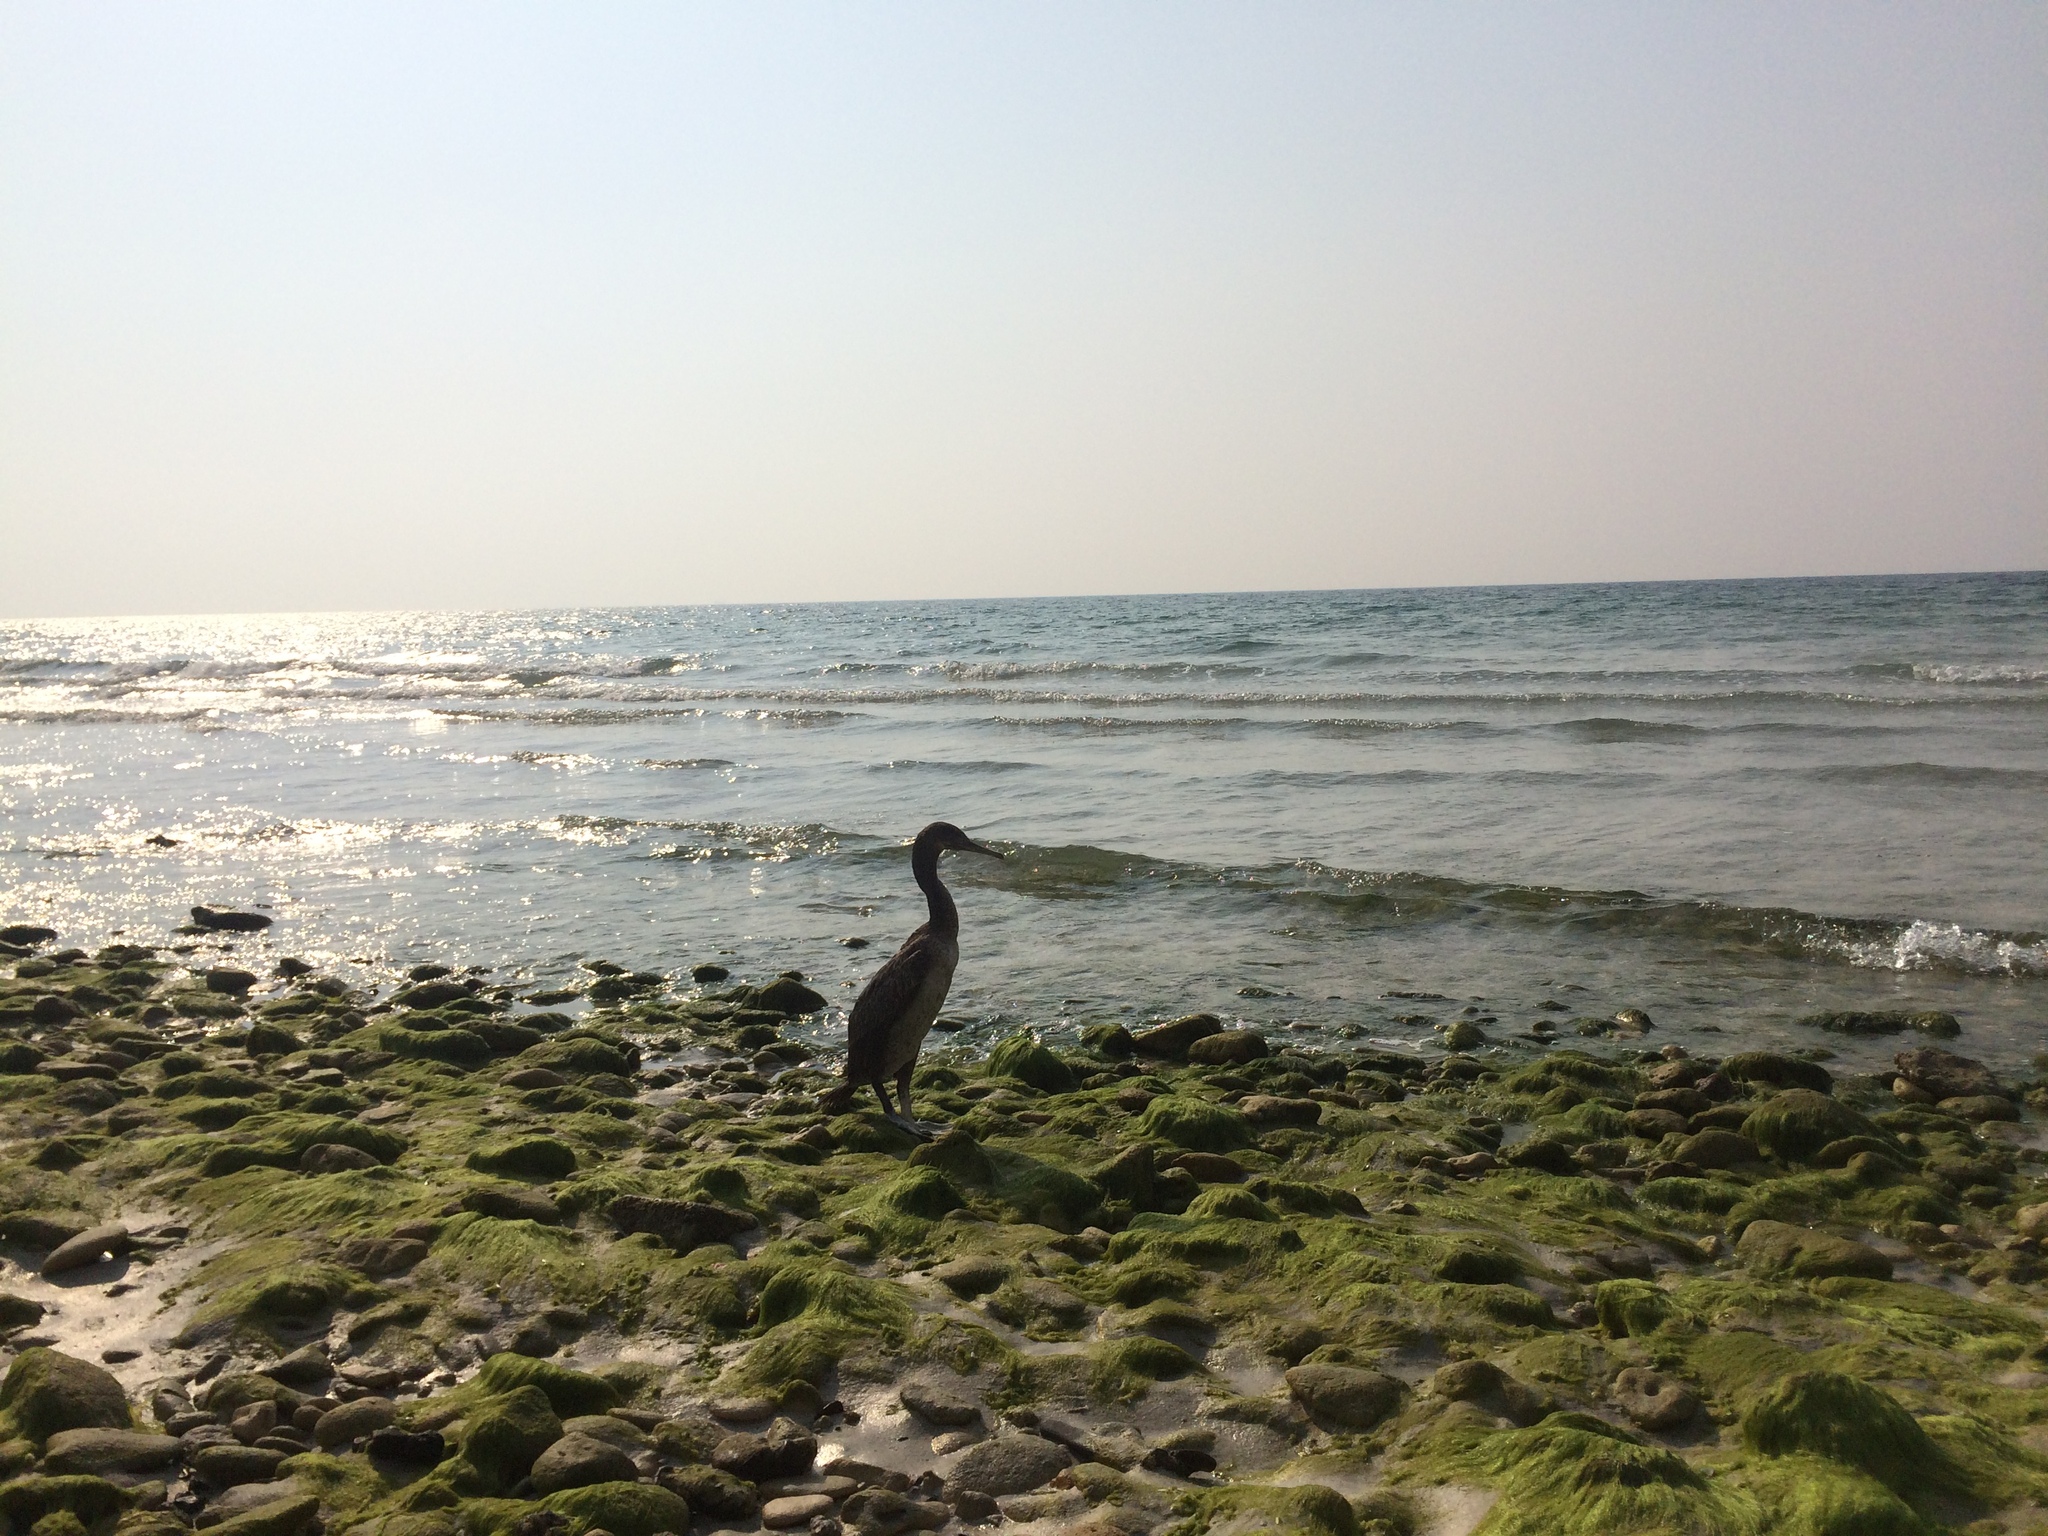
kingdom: Animalia
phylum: Chordata
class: Aves
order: Suliformes
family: Phalacrocoracidae
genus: Phalacrocorax
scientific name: Phalacrocorax nigrogularis
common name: Socotra cormorant
